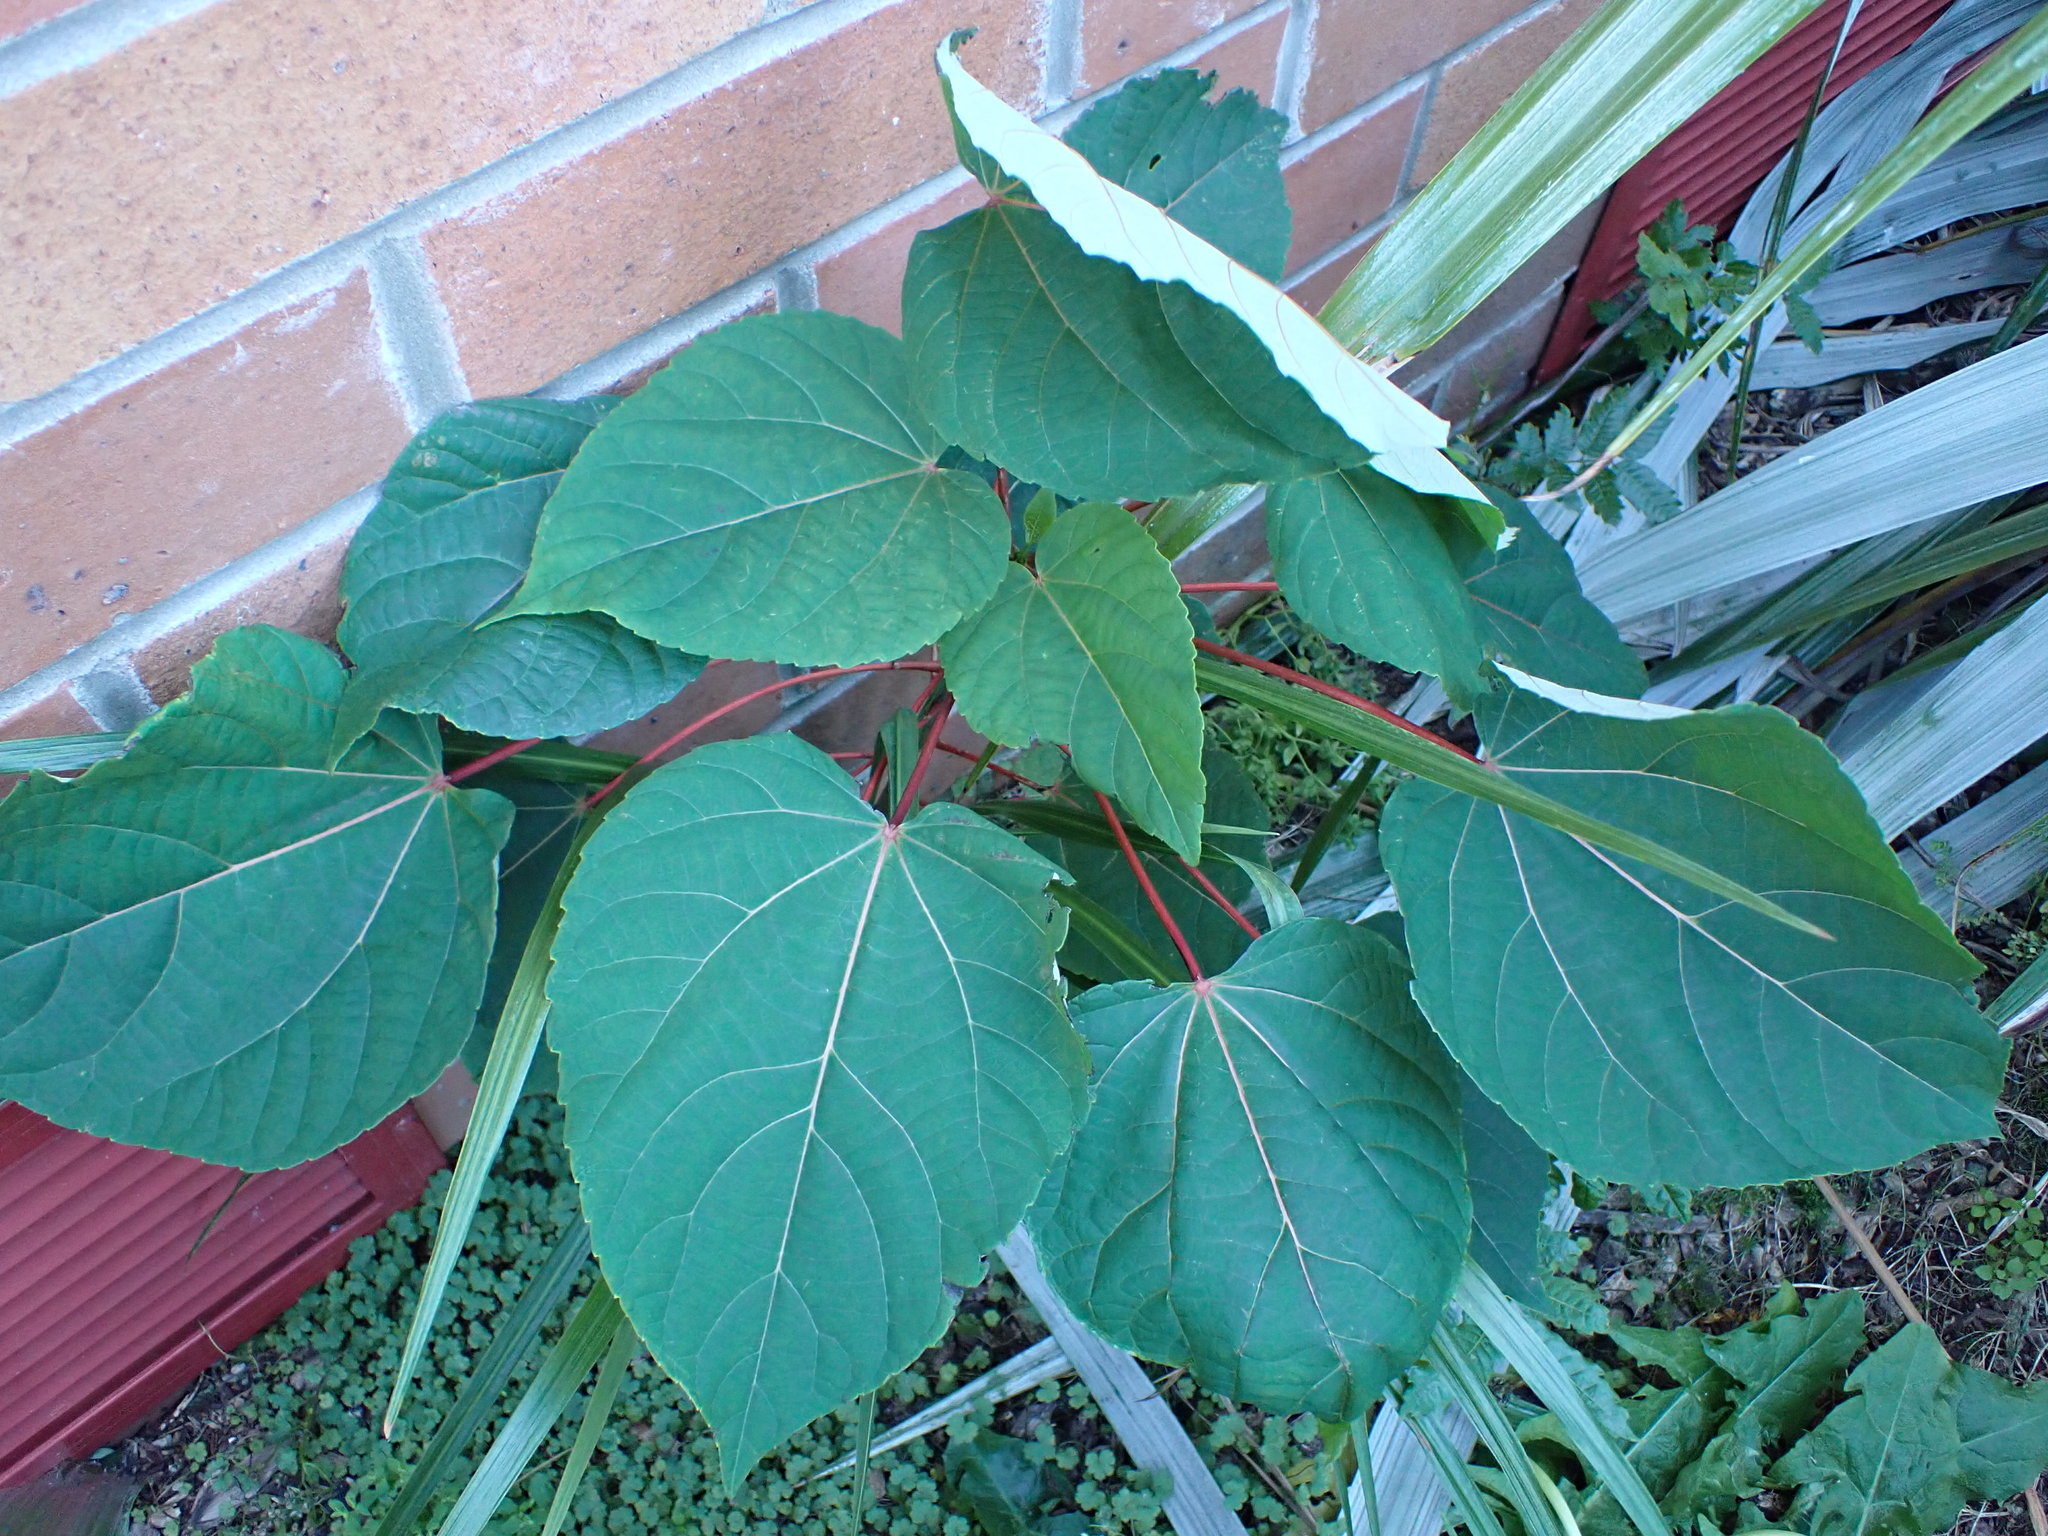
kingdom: Plantae
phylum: Tracheophyta
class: Magnoliopsida
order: Malpighiales
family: Salicaceae
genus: Idesia
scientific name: Idesia polycarpa
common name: Idesia tree
